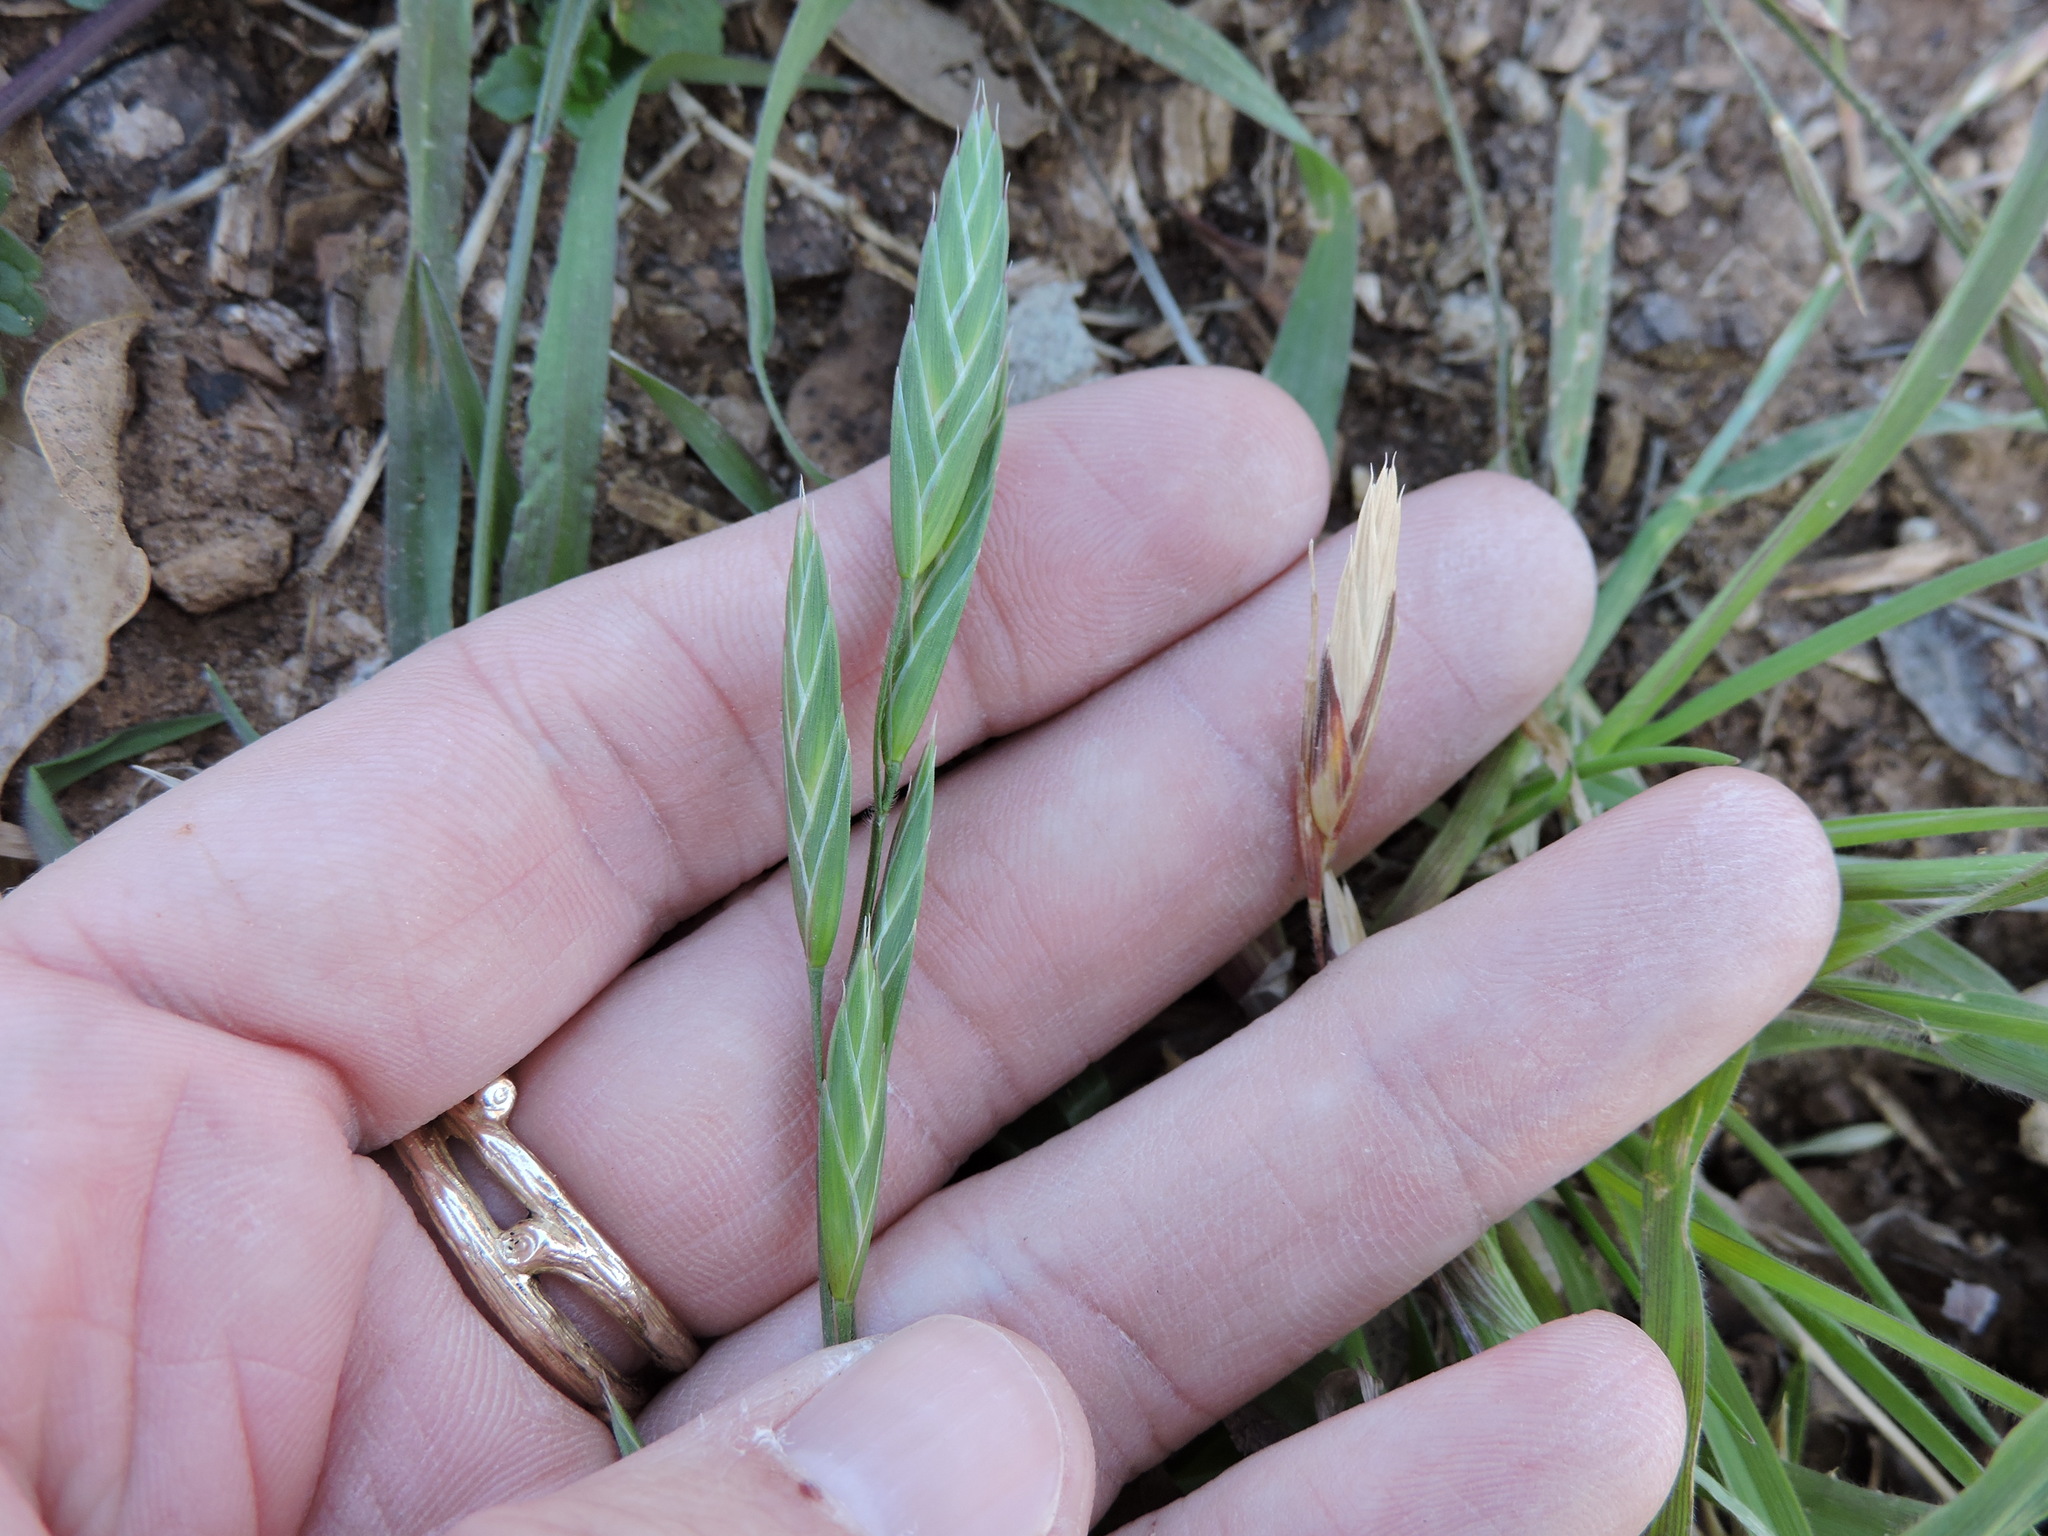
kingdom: Plantae
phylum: Tracheophyta
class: Liliopsida
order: Poales
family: Poaceae
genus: Bromus
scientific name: Bromus catharticus
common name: Rescuegrass
